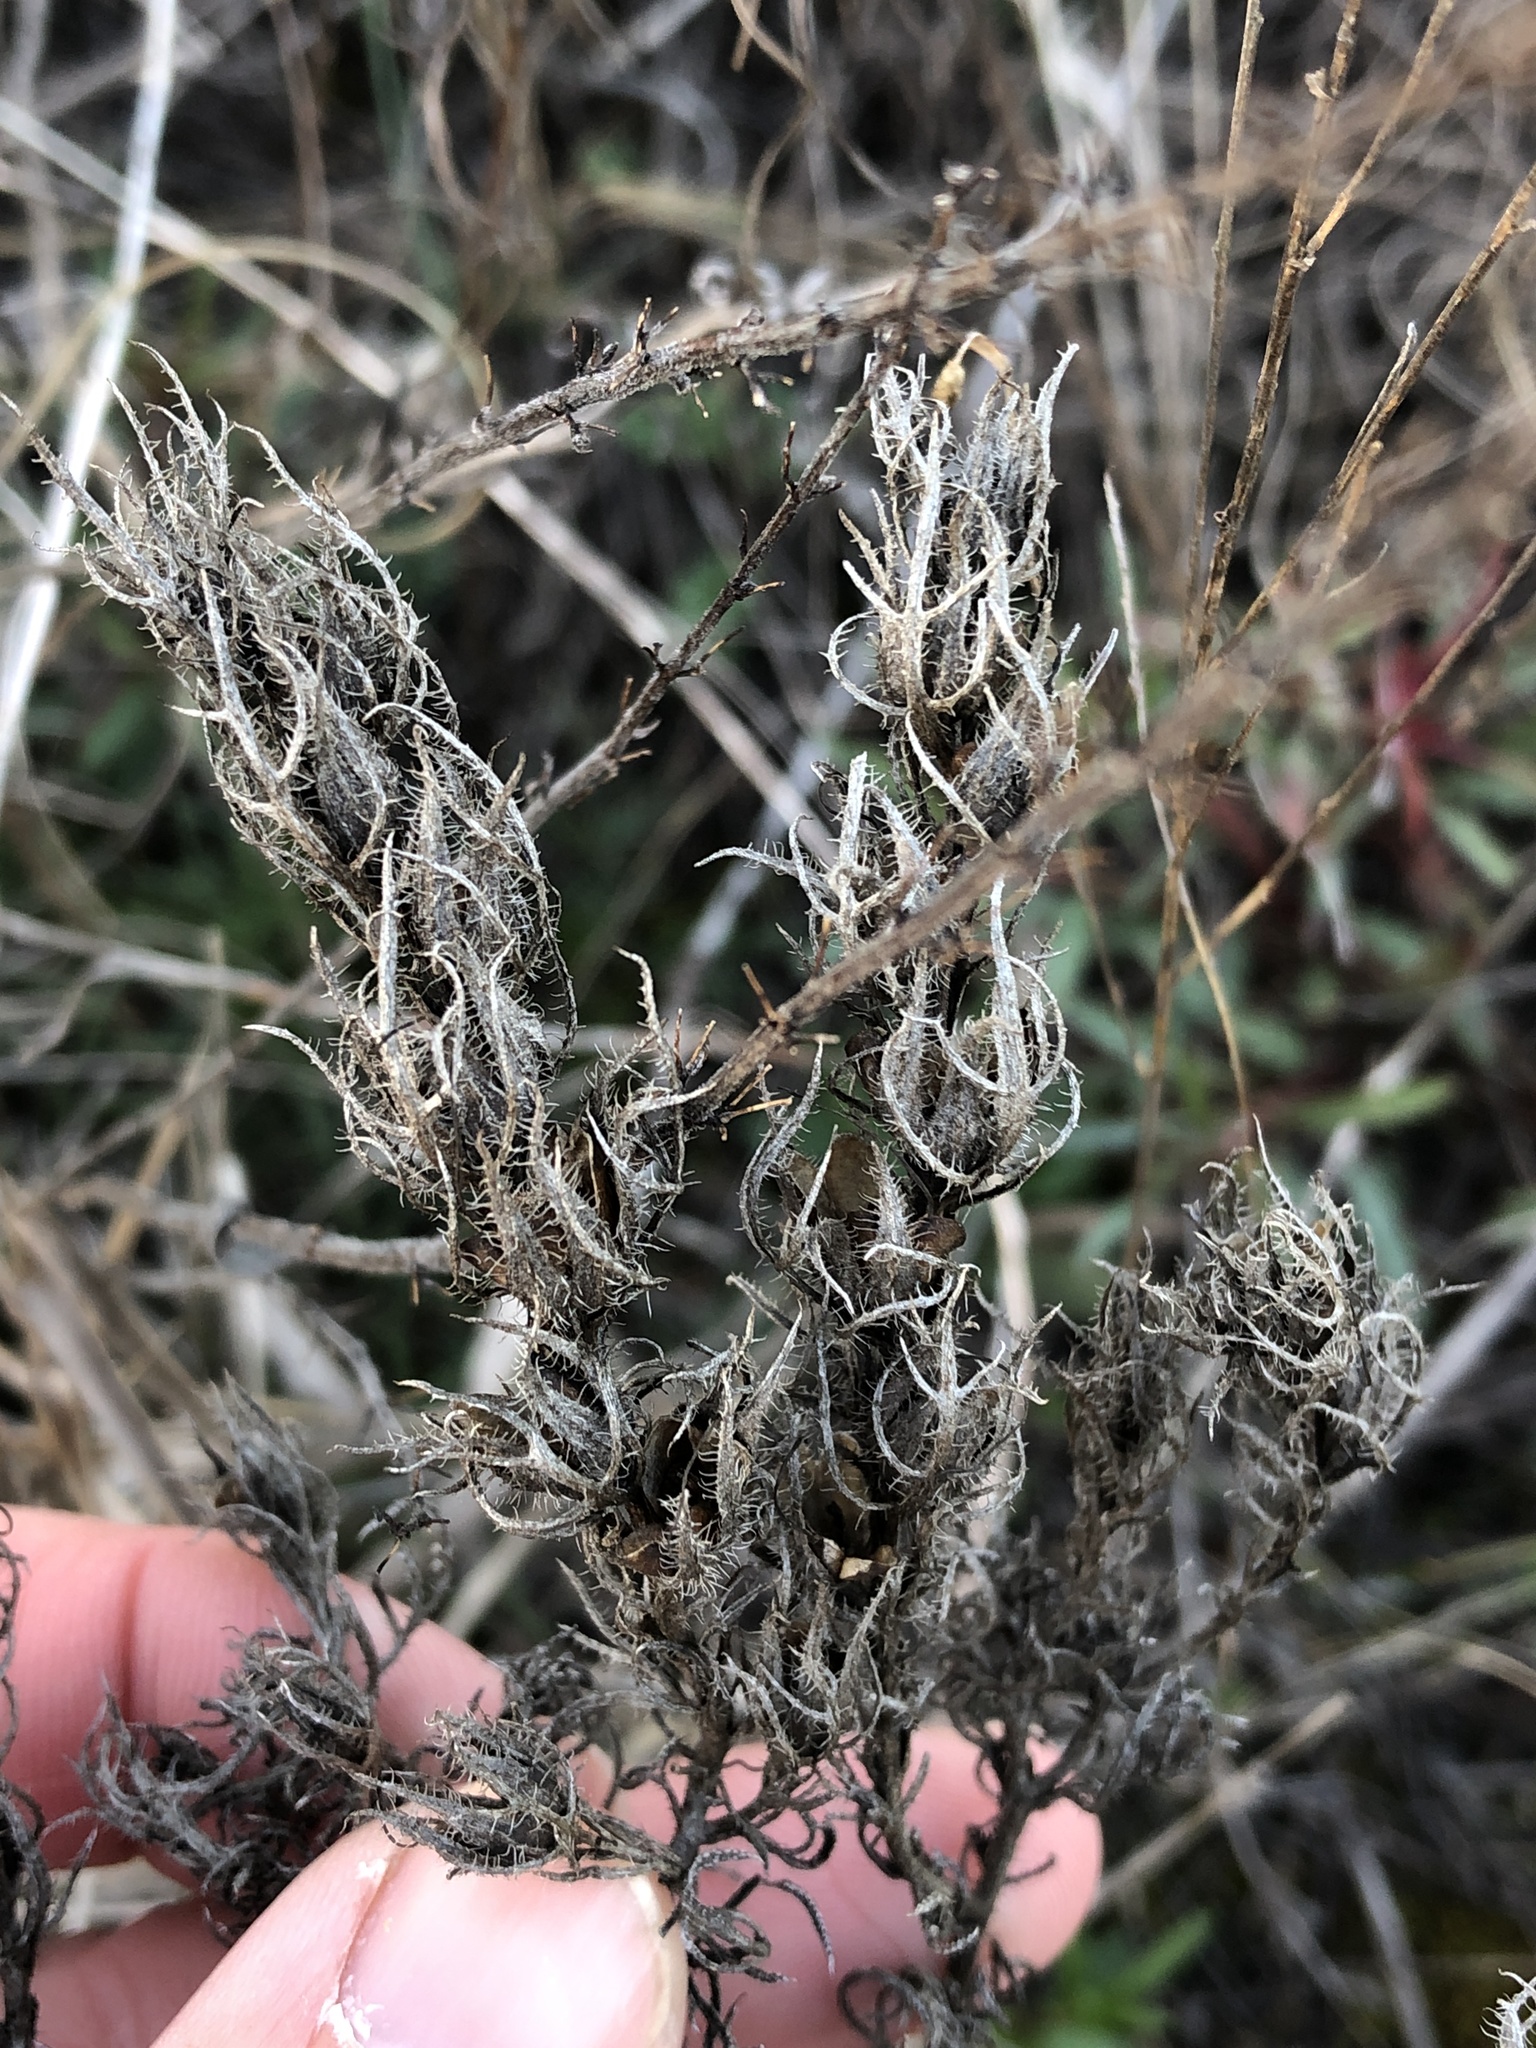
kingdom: Plantae
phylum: Tracheophyta
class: Magnoliopsida
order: Lamiales
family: Orobanchaceae
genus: Agalinis
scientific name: Agalinis densiflora
